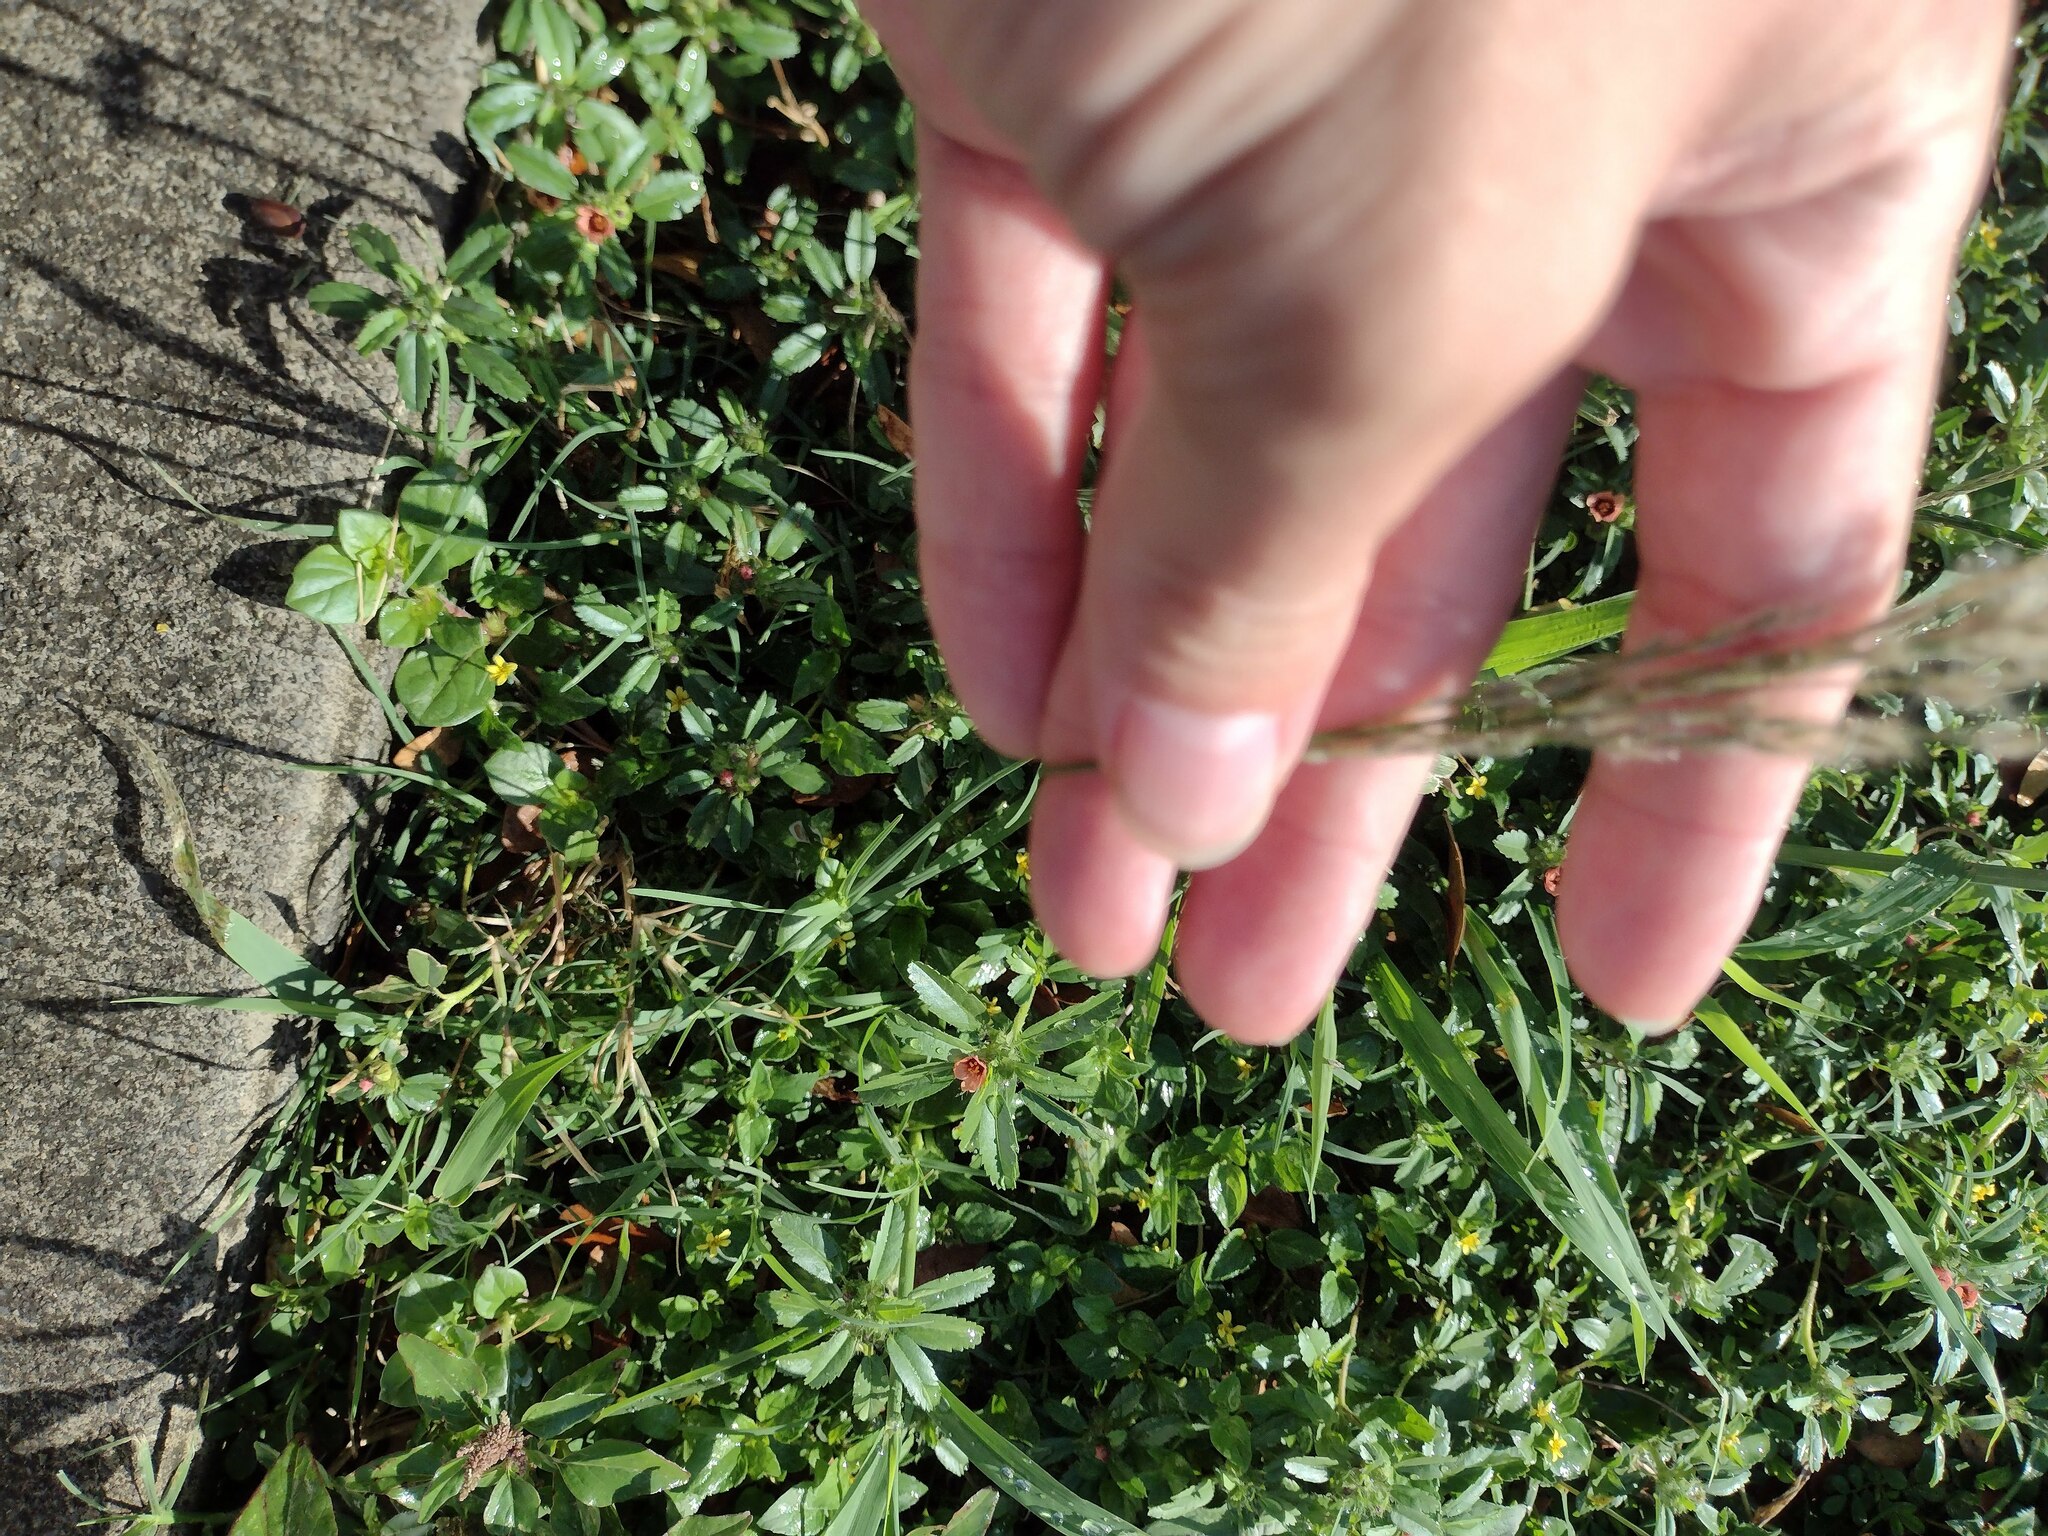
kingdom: Plantae
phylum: Tracheophyta
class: Liliopsida
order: Poales
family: Poaceae
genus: Digitaria
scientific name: Digitaria insularis
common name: Sourgrass
